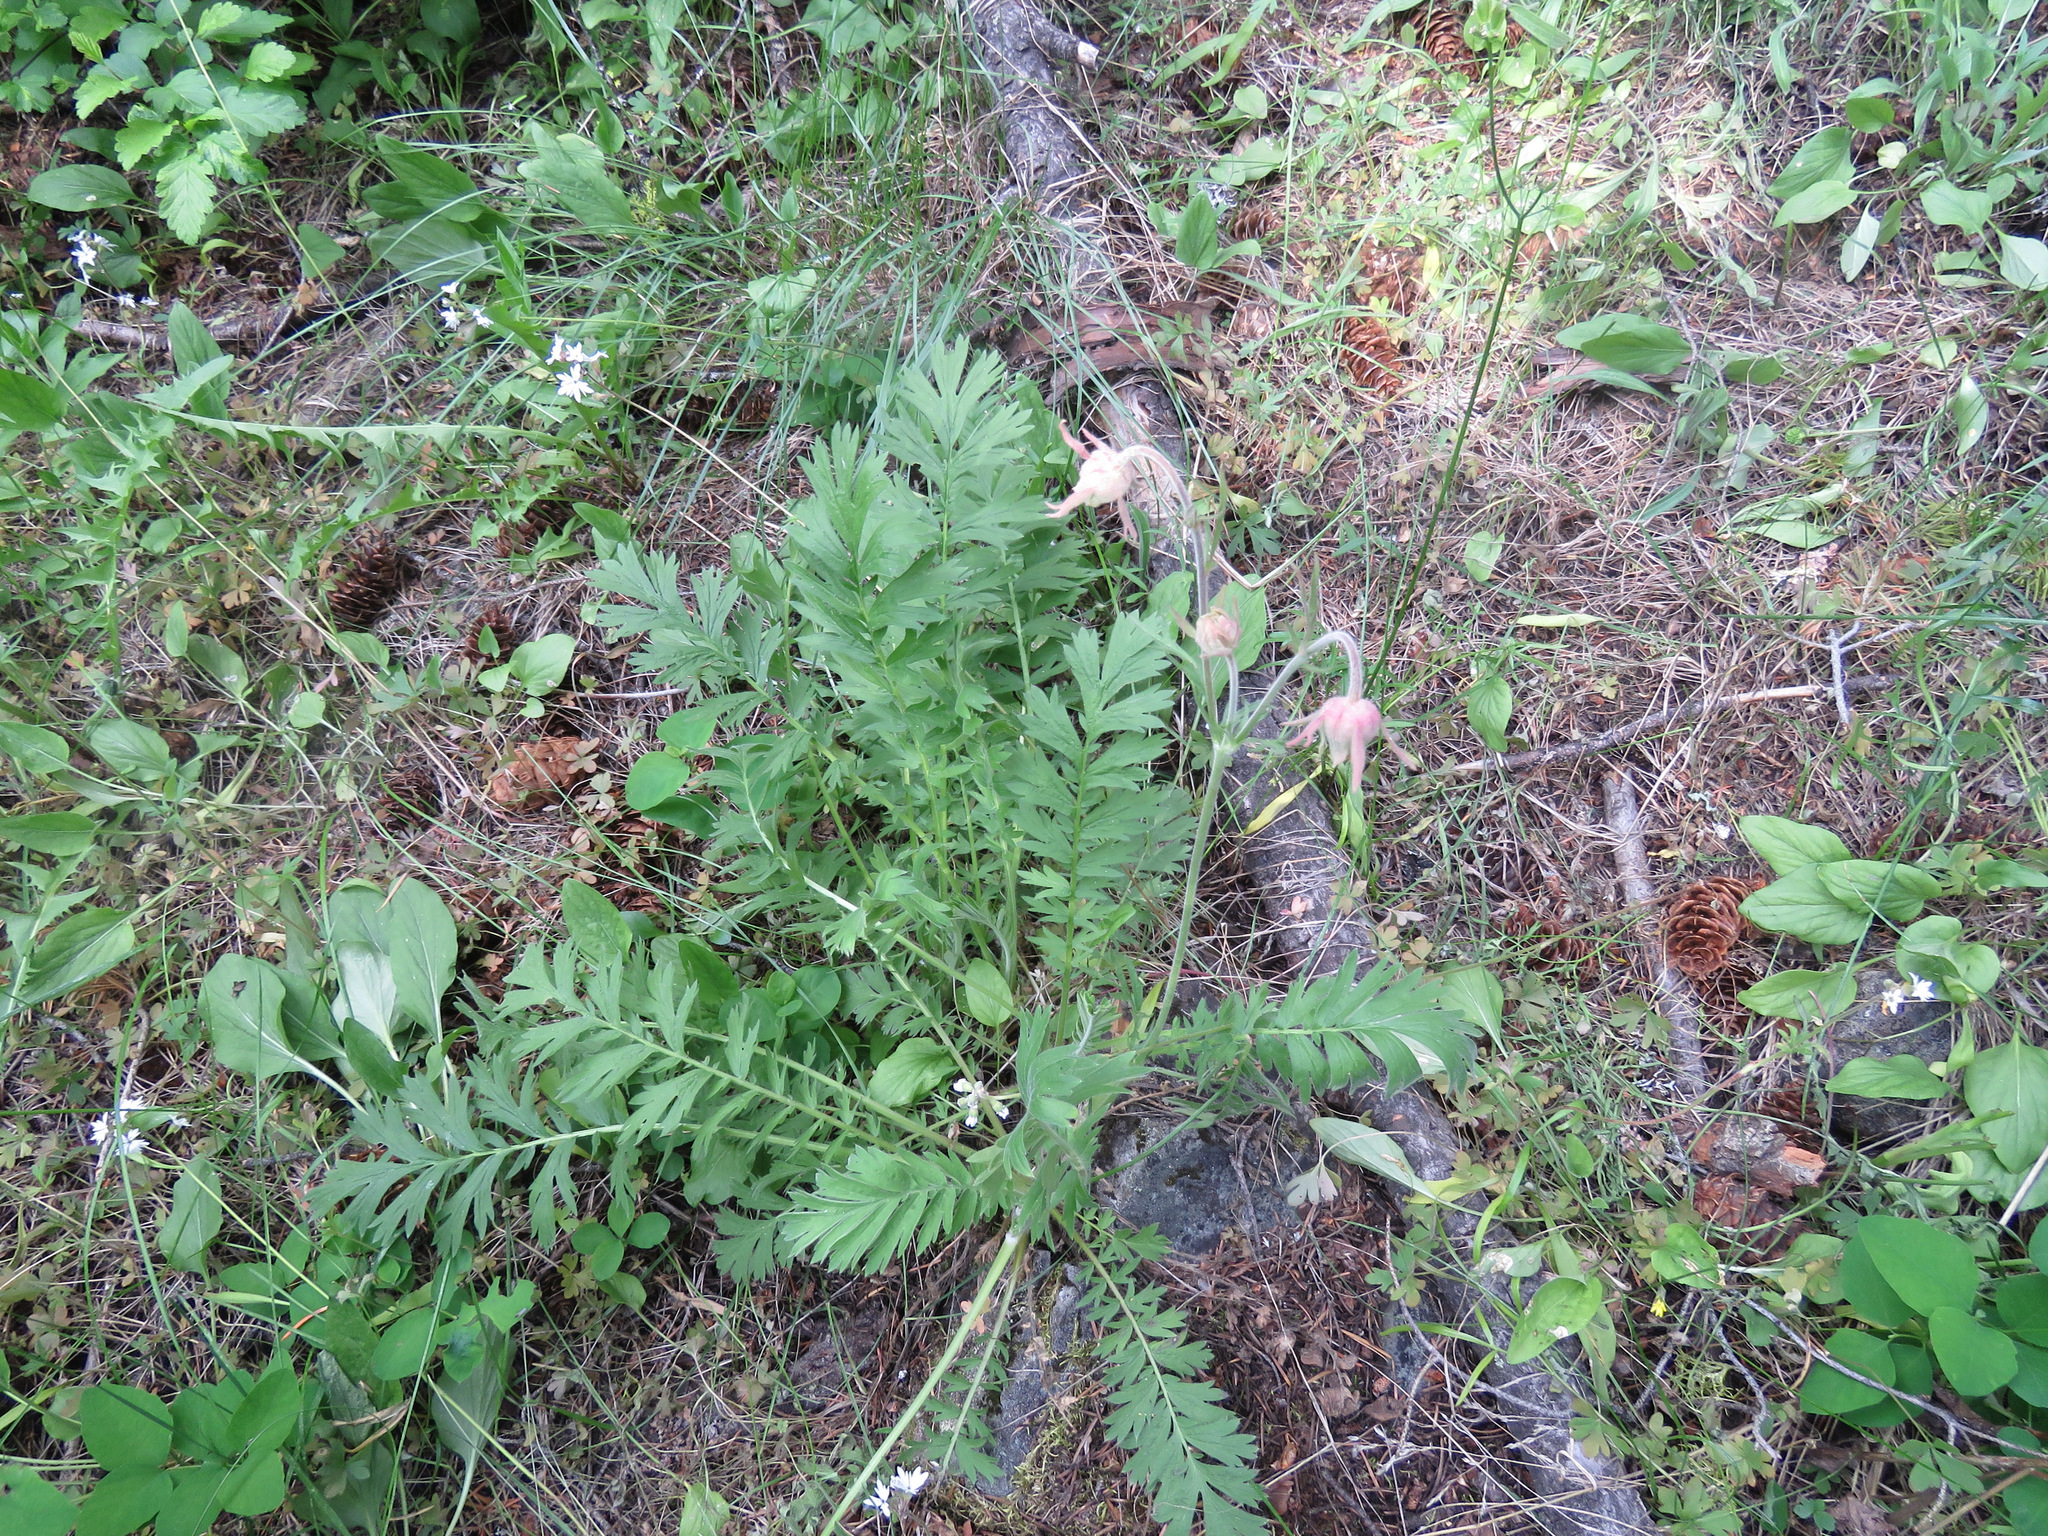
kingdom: Plantae
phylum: Tracheophyta
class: Magnoliopsida
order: Rosales
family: Rosaceae
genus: Geum
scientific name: Geum triflorum
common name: Old man's whiskers
